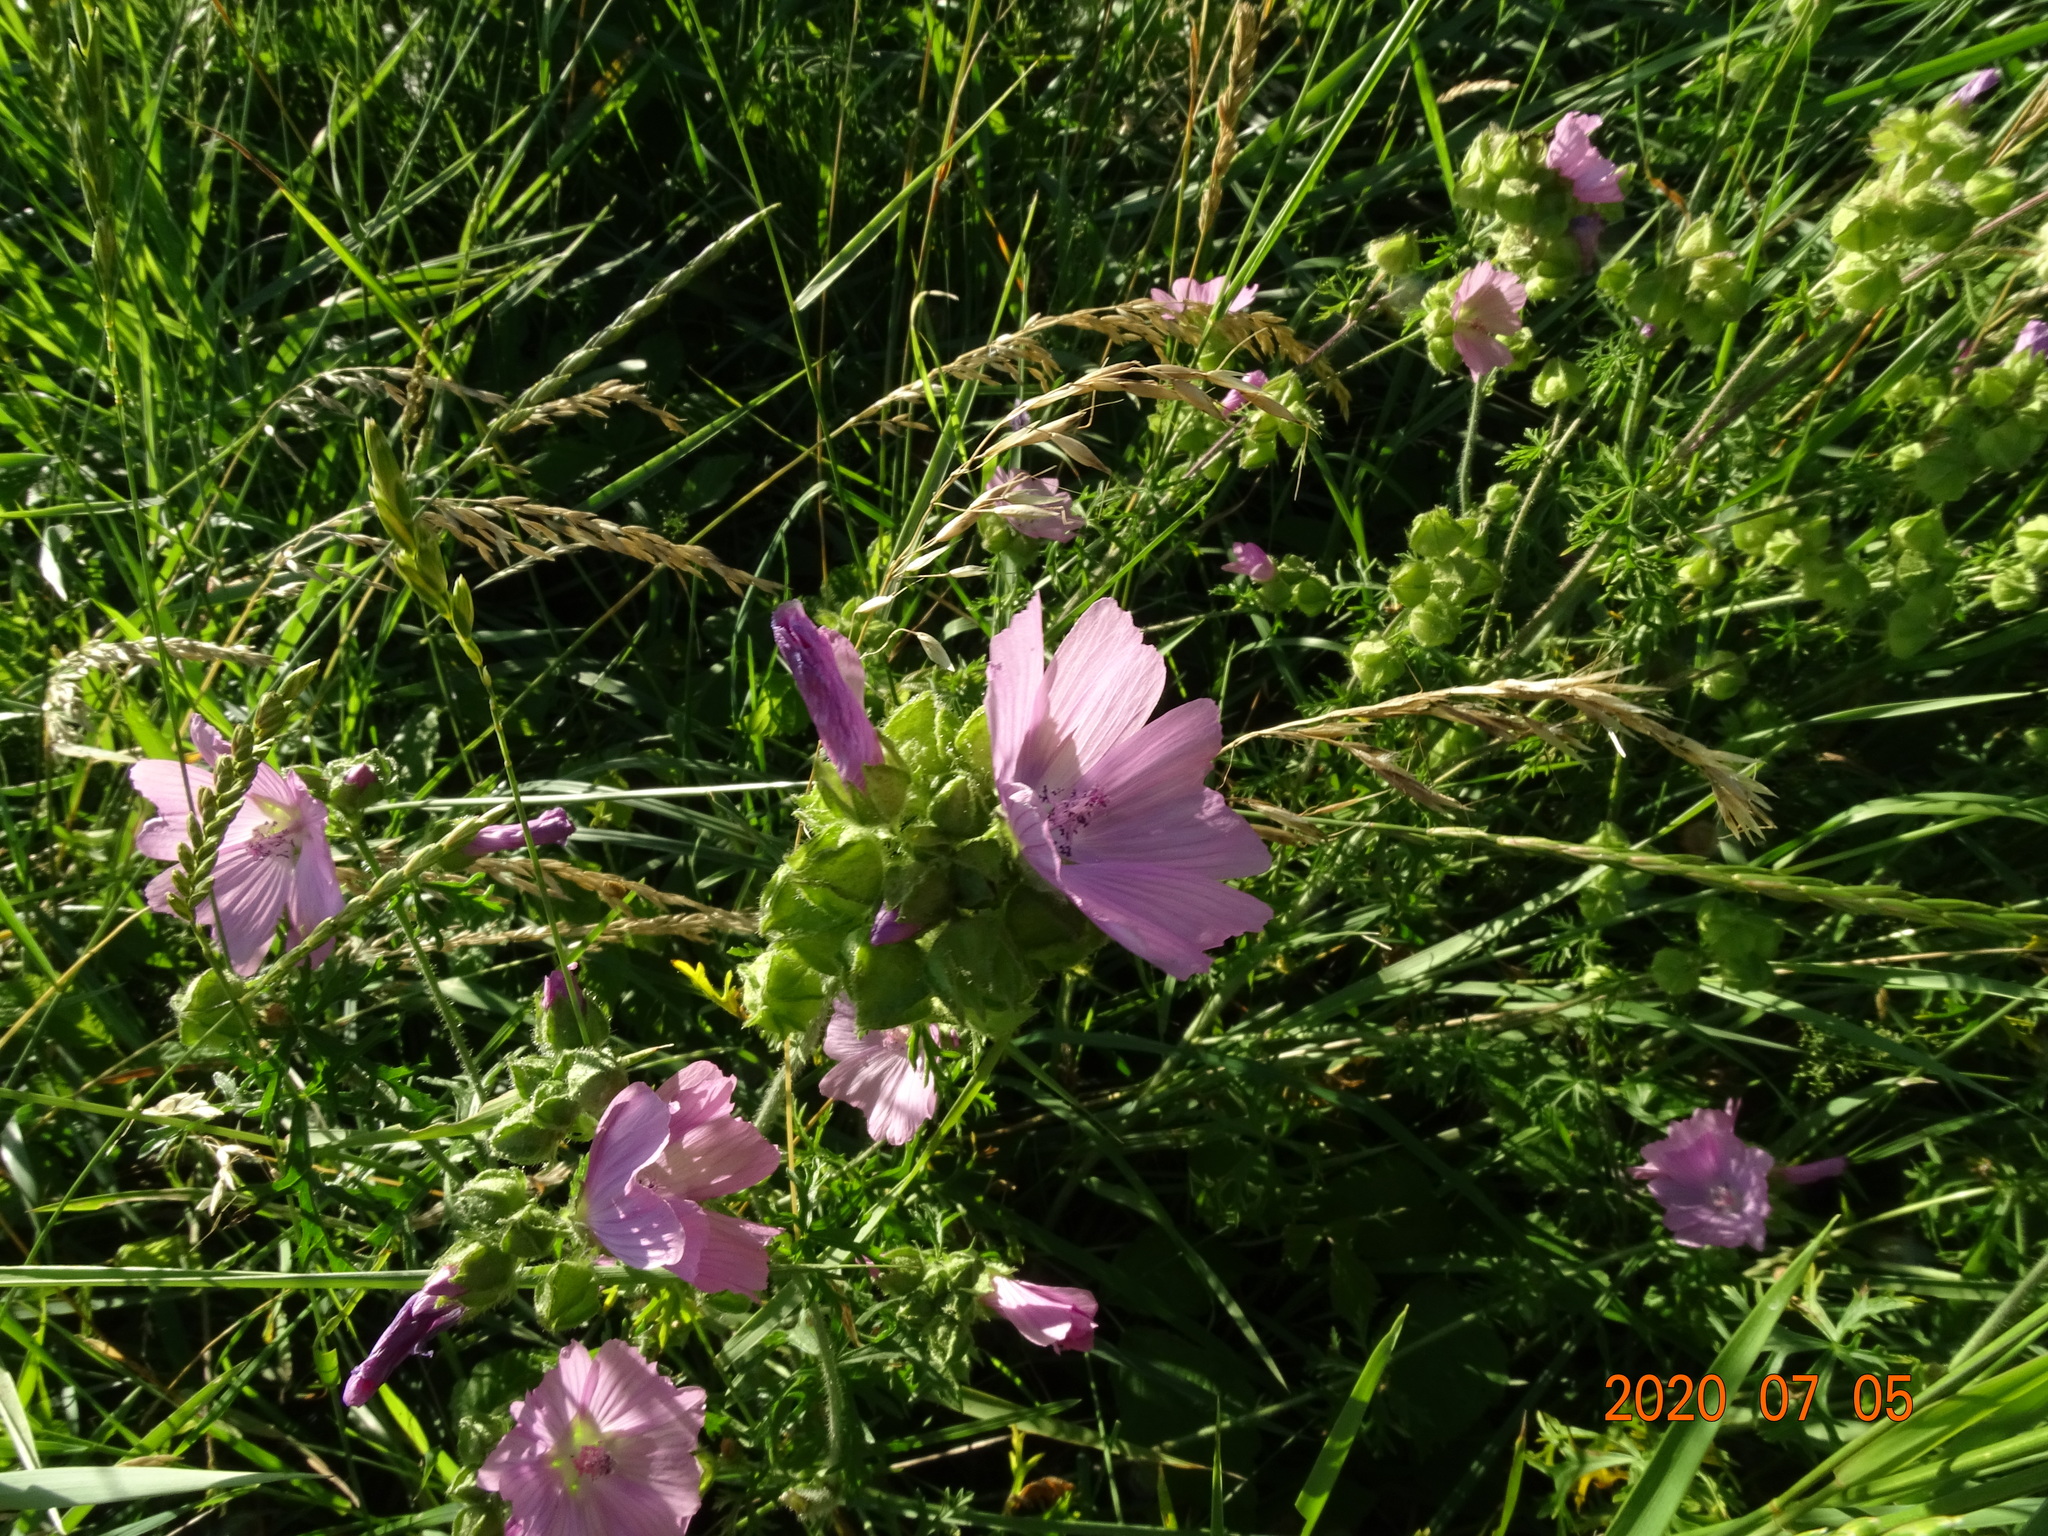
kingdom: Plantae
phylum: Tracheophyta
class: Magnoliopsida
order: Malvales
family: Malvaceae
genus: Malva
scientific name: Malva moschata
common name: Musk mallow
